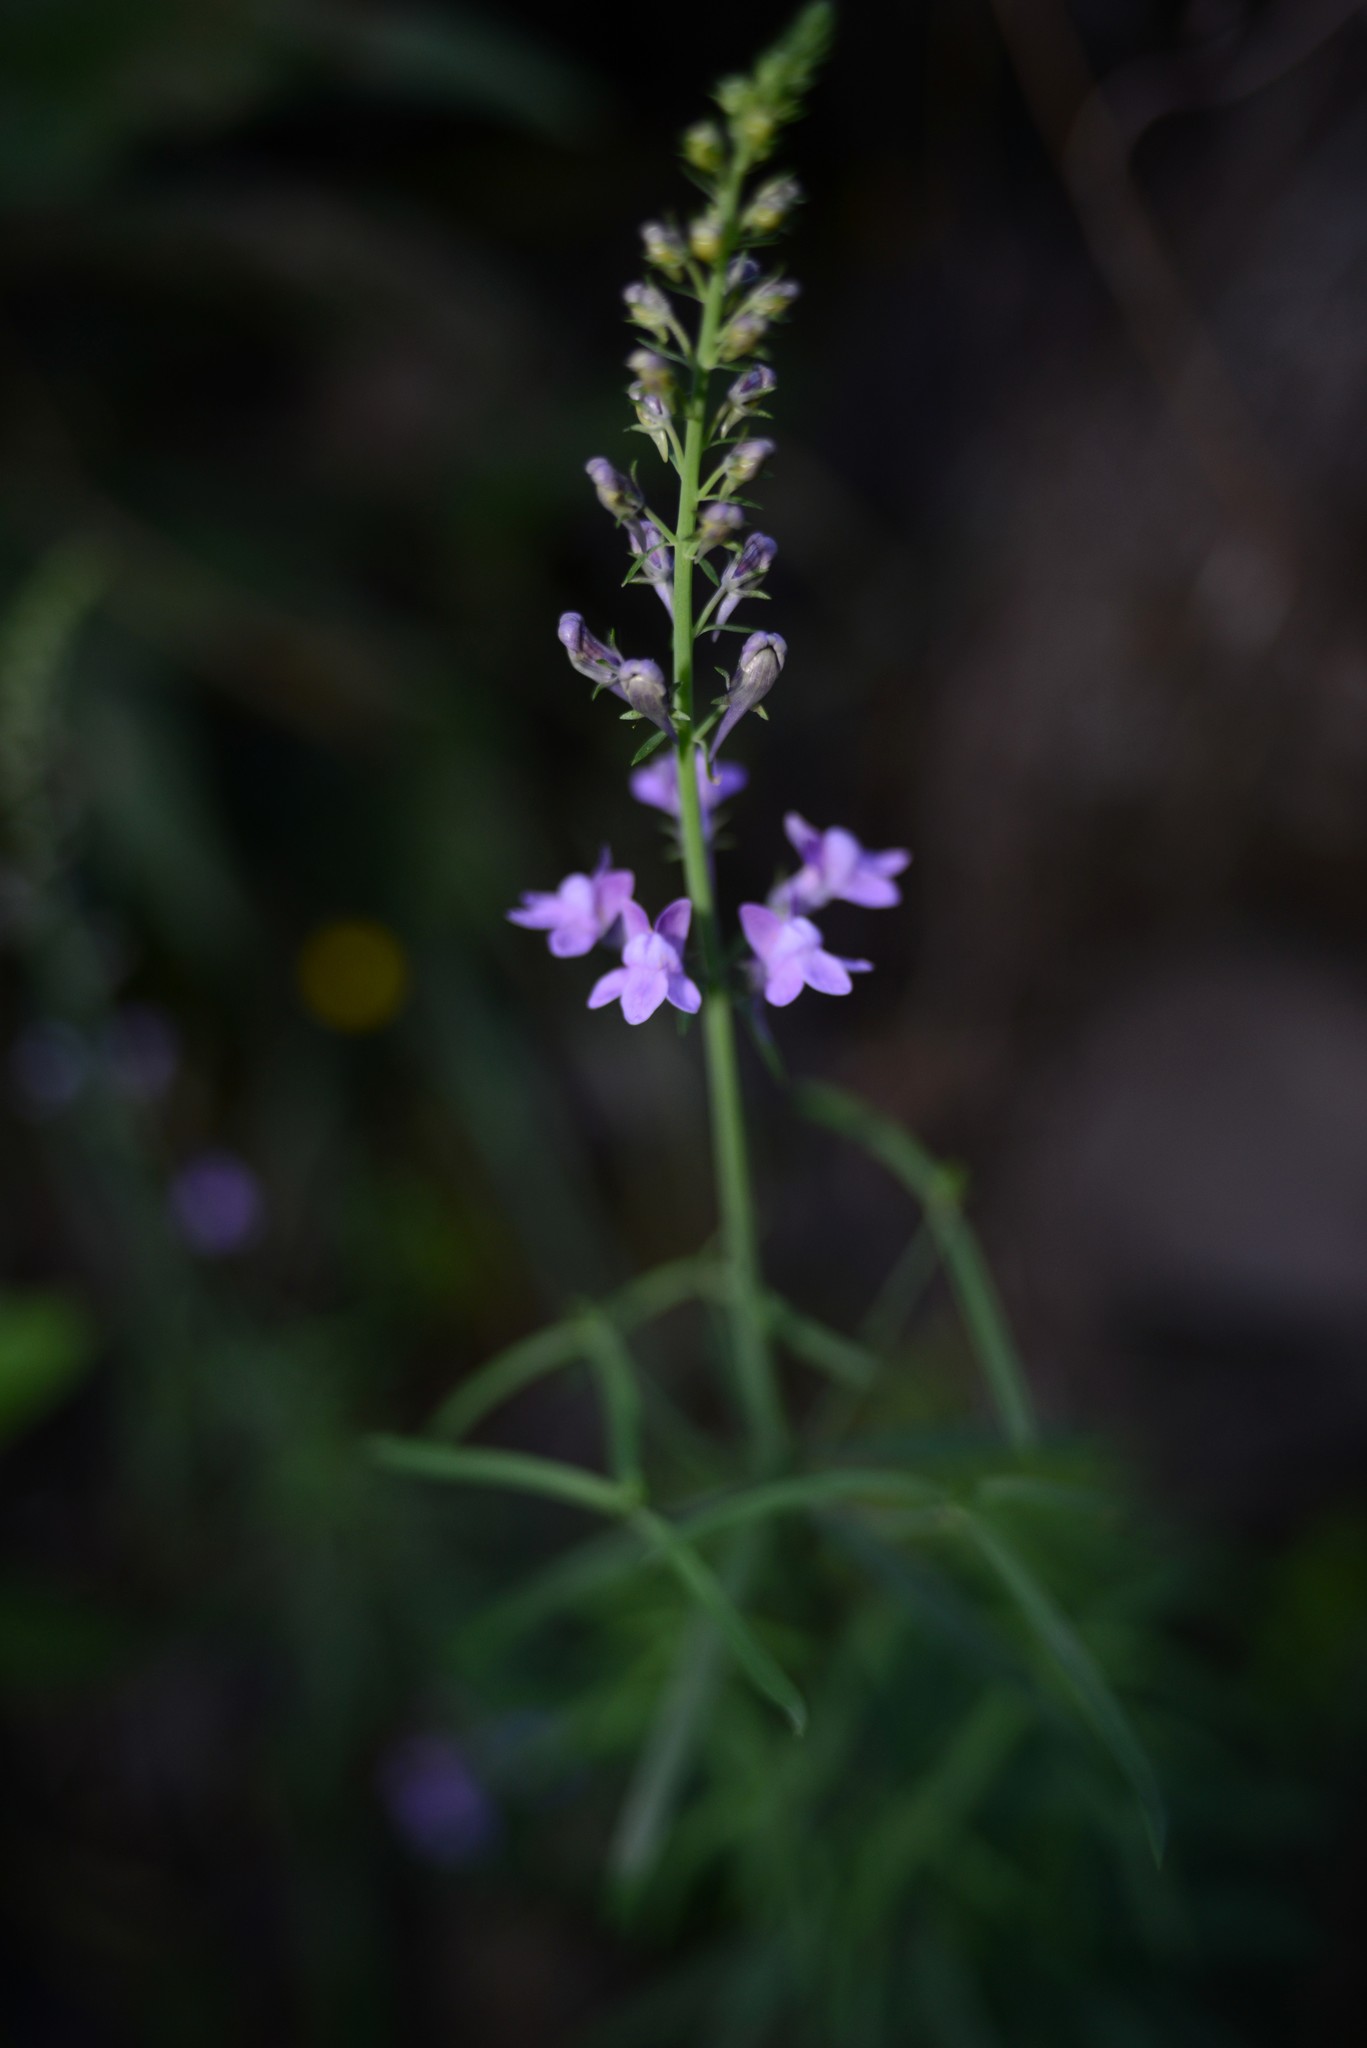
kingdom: Plantae
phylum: Tracheophyta
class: Magnoliopsida
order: Lamiales
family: Plantaginaceae
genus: Linaria
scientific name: Linaria purpurea
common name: Purple toadflax
